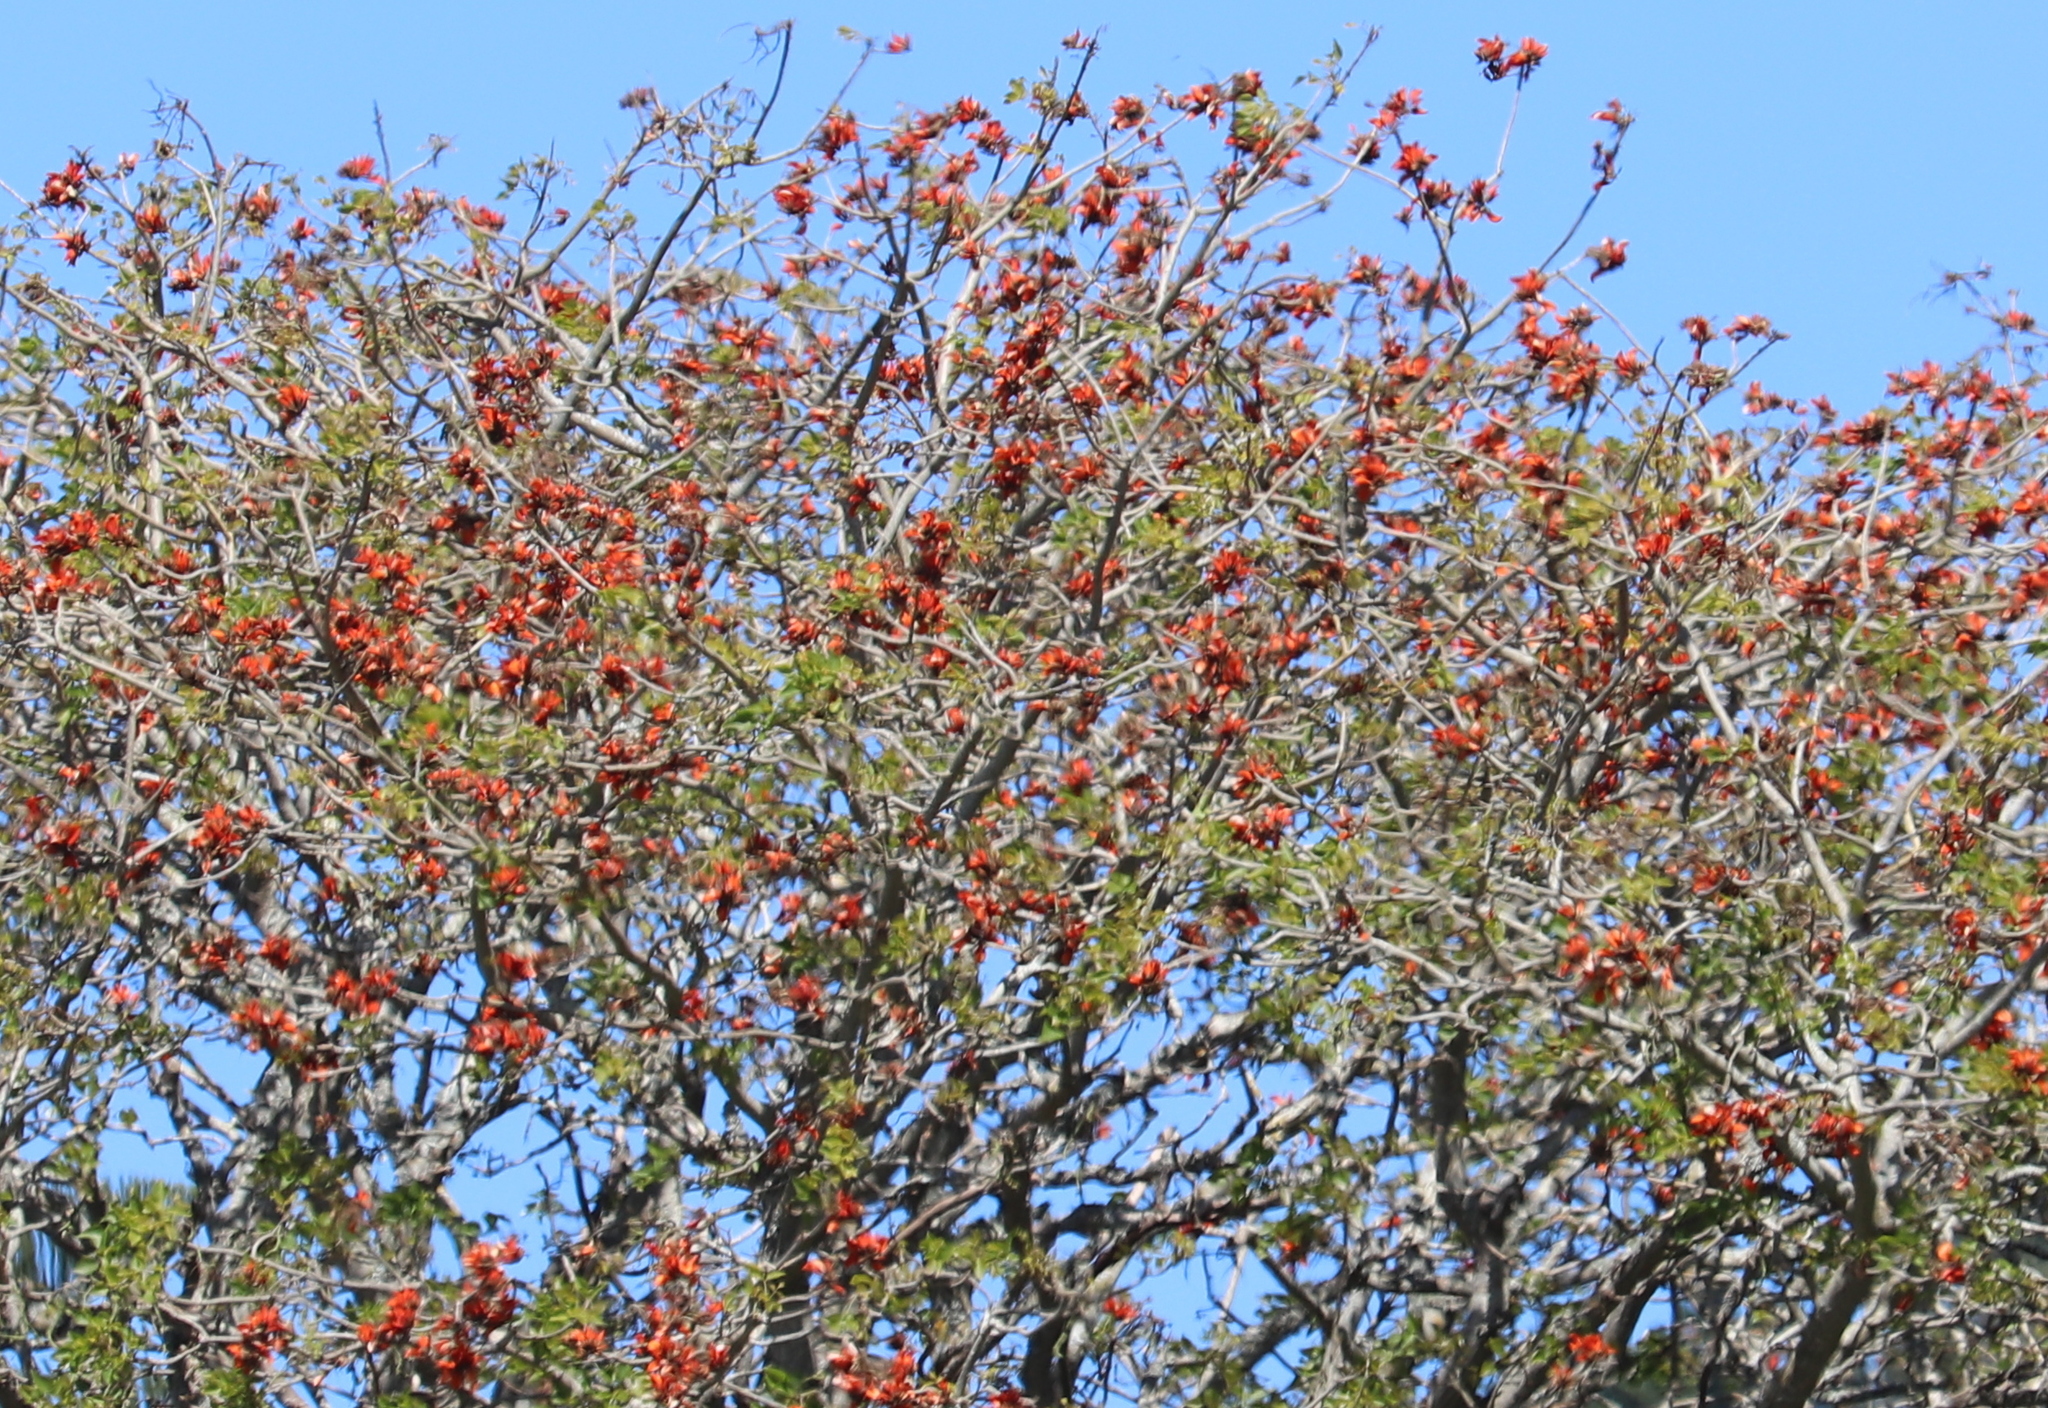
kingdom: Plantae
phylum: Tracheophyta
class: Magnoliopsida
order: Fabales
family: Fabaceae
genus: Erythrina
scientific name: Erythrina caffra
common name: Coast coral tree
